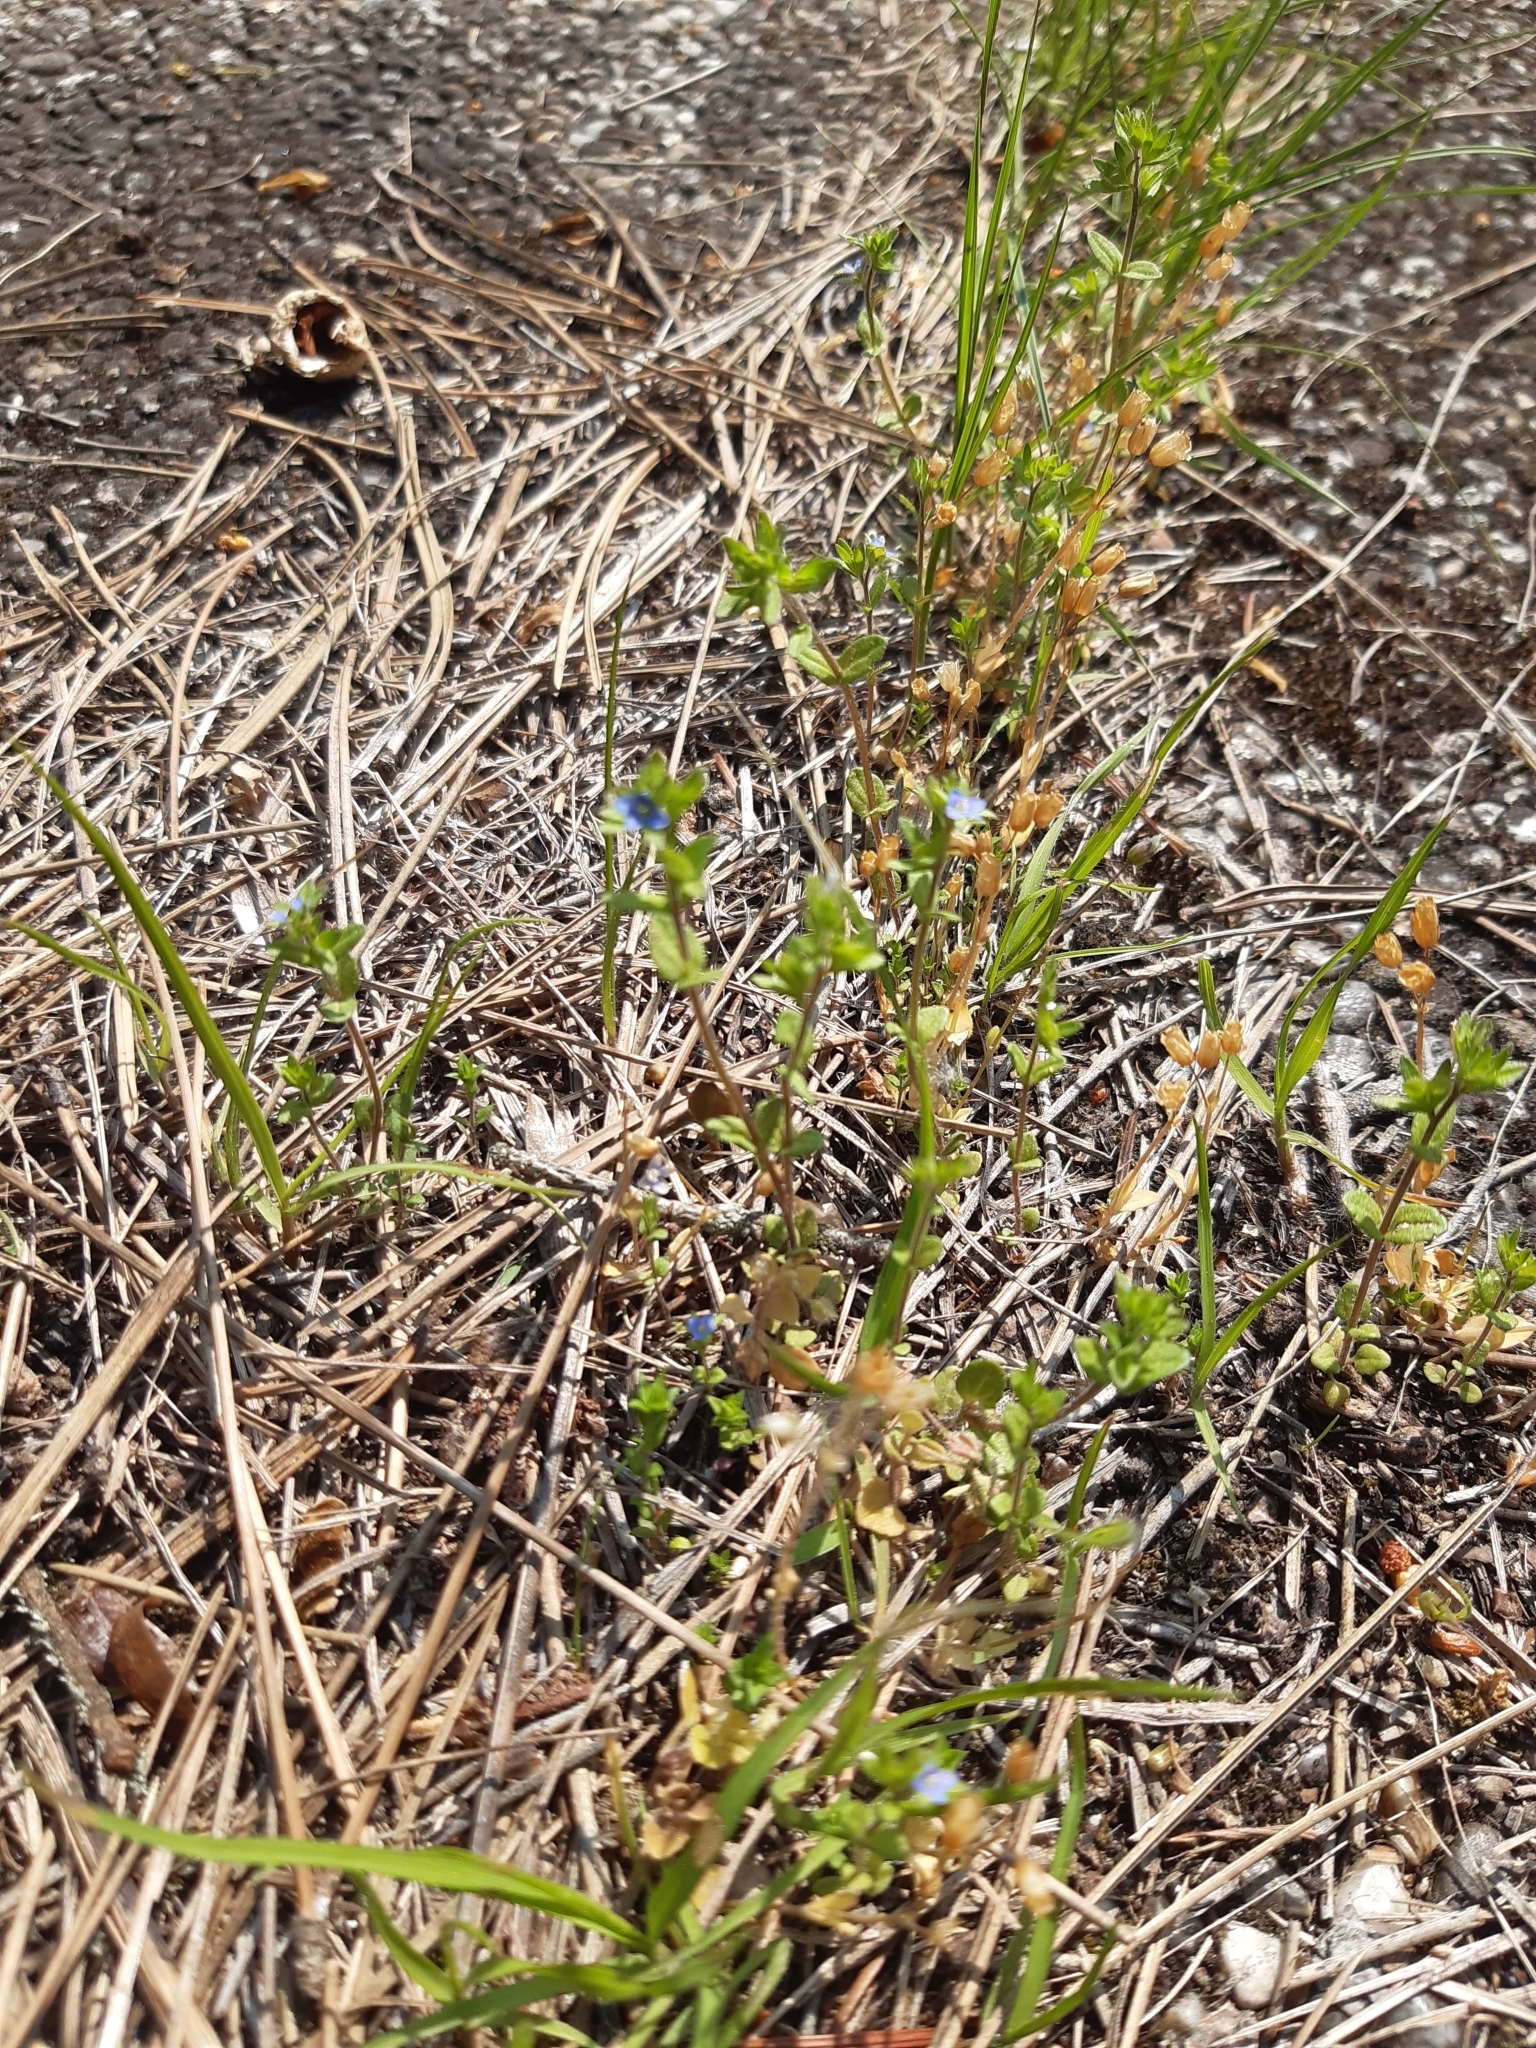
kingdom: Plantae
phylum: Tracheophyta
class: Magnoliopsida
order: Lamiales
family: Plantaginaceae
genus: Veronica
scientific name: Veronica arvensis
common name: Corn speedwell
